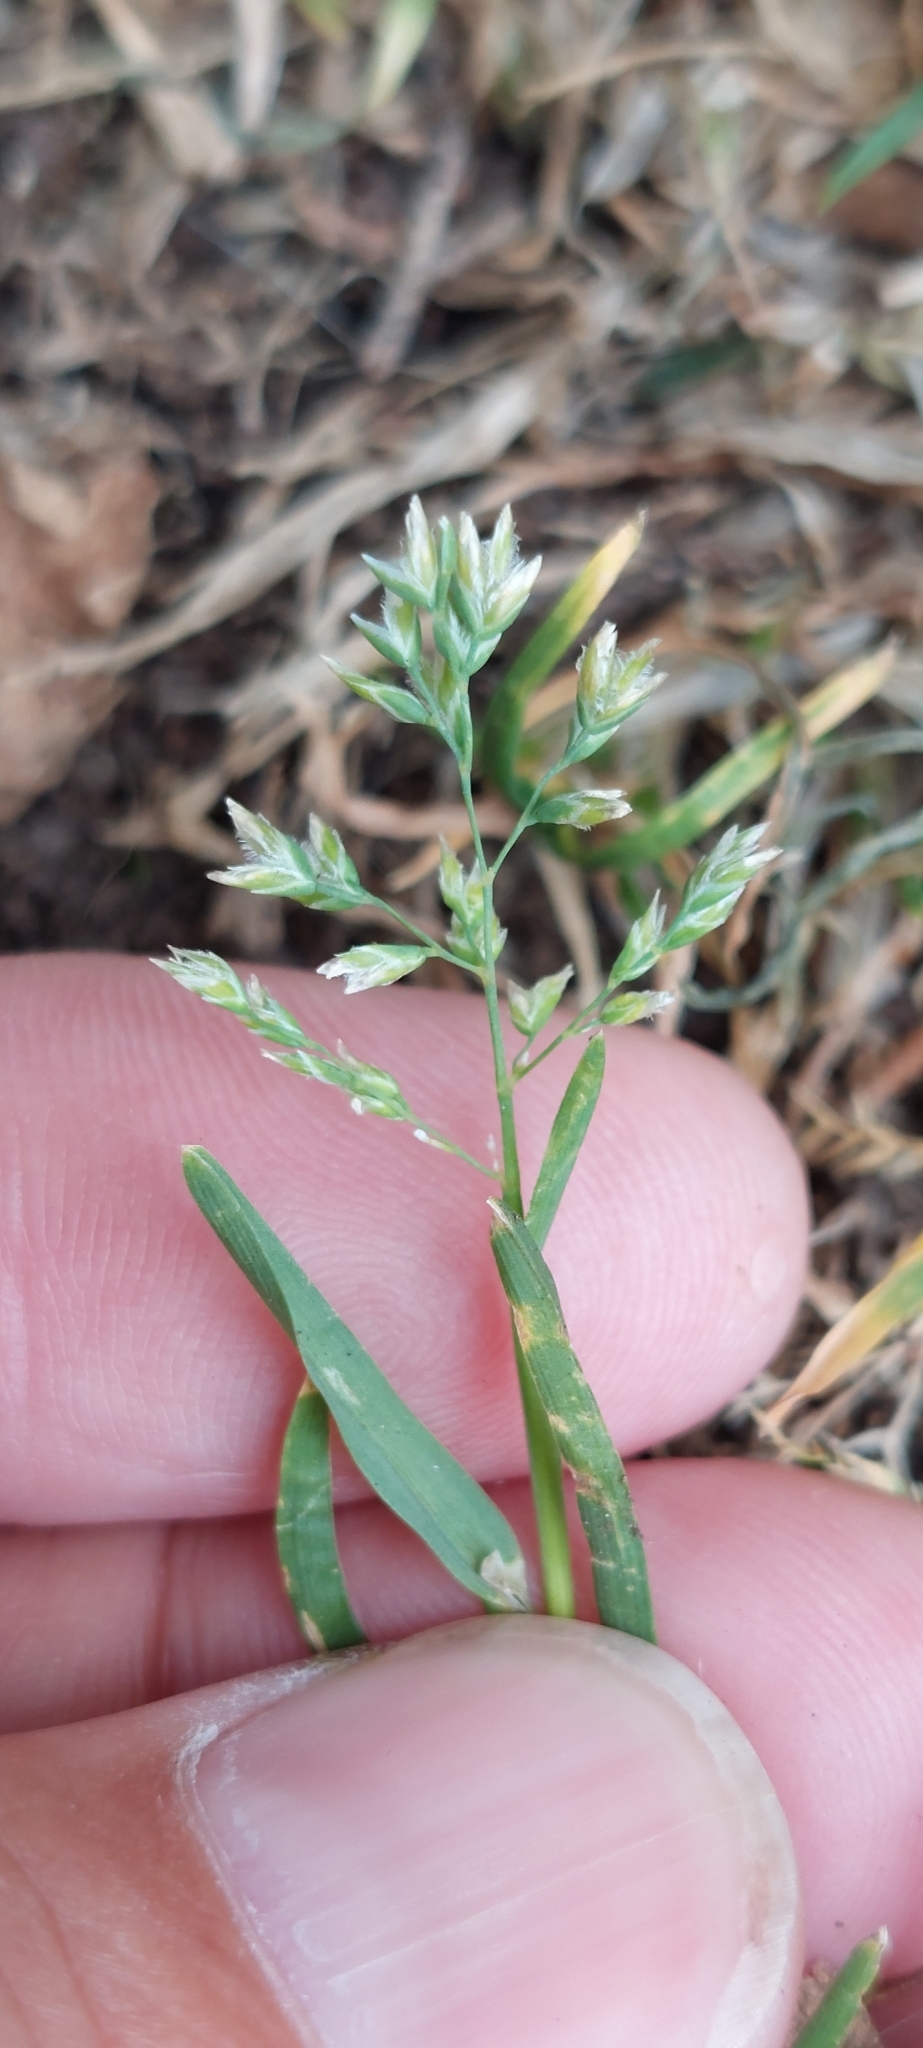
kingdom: Plantae
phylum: Tracheophyta
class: Liliopsida
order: Poales
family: Poaceae
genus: Poa
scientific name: Poa annua
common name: Annual bluegrass
